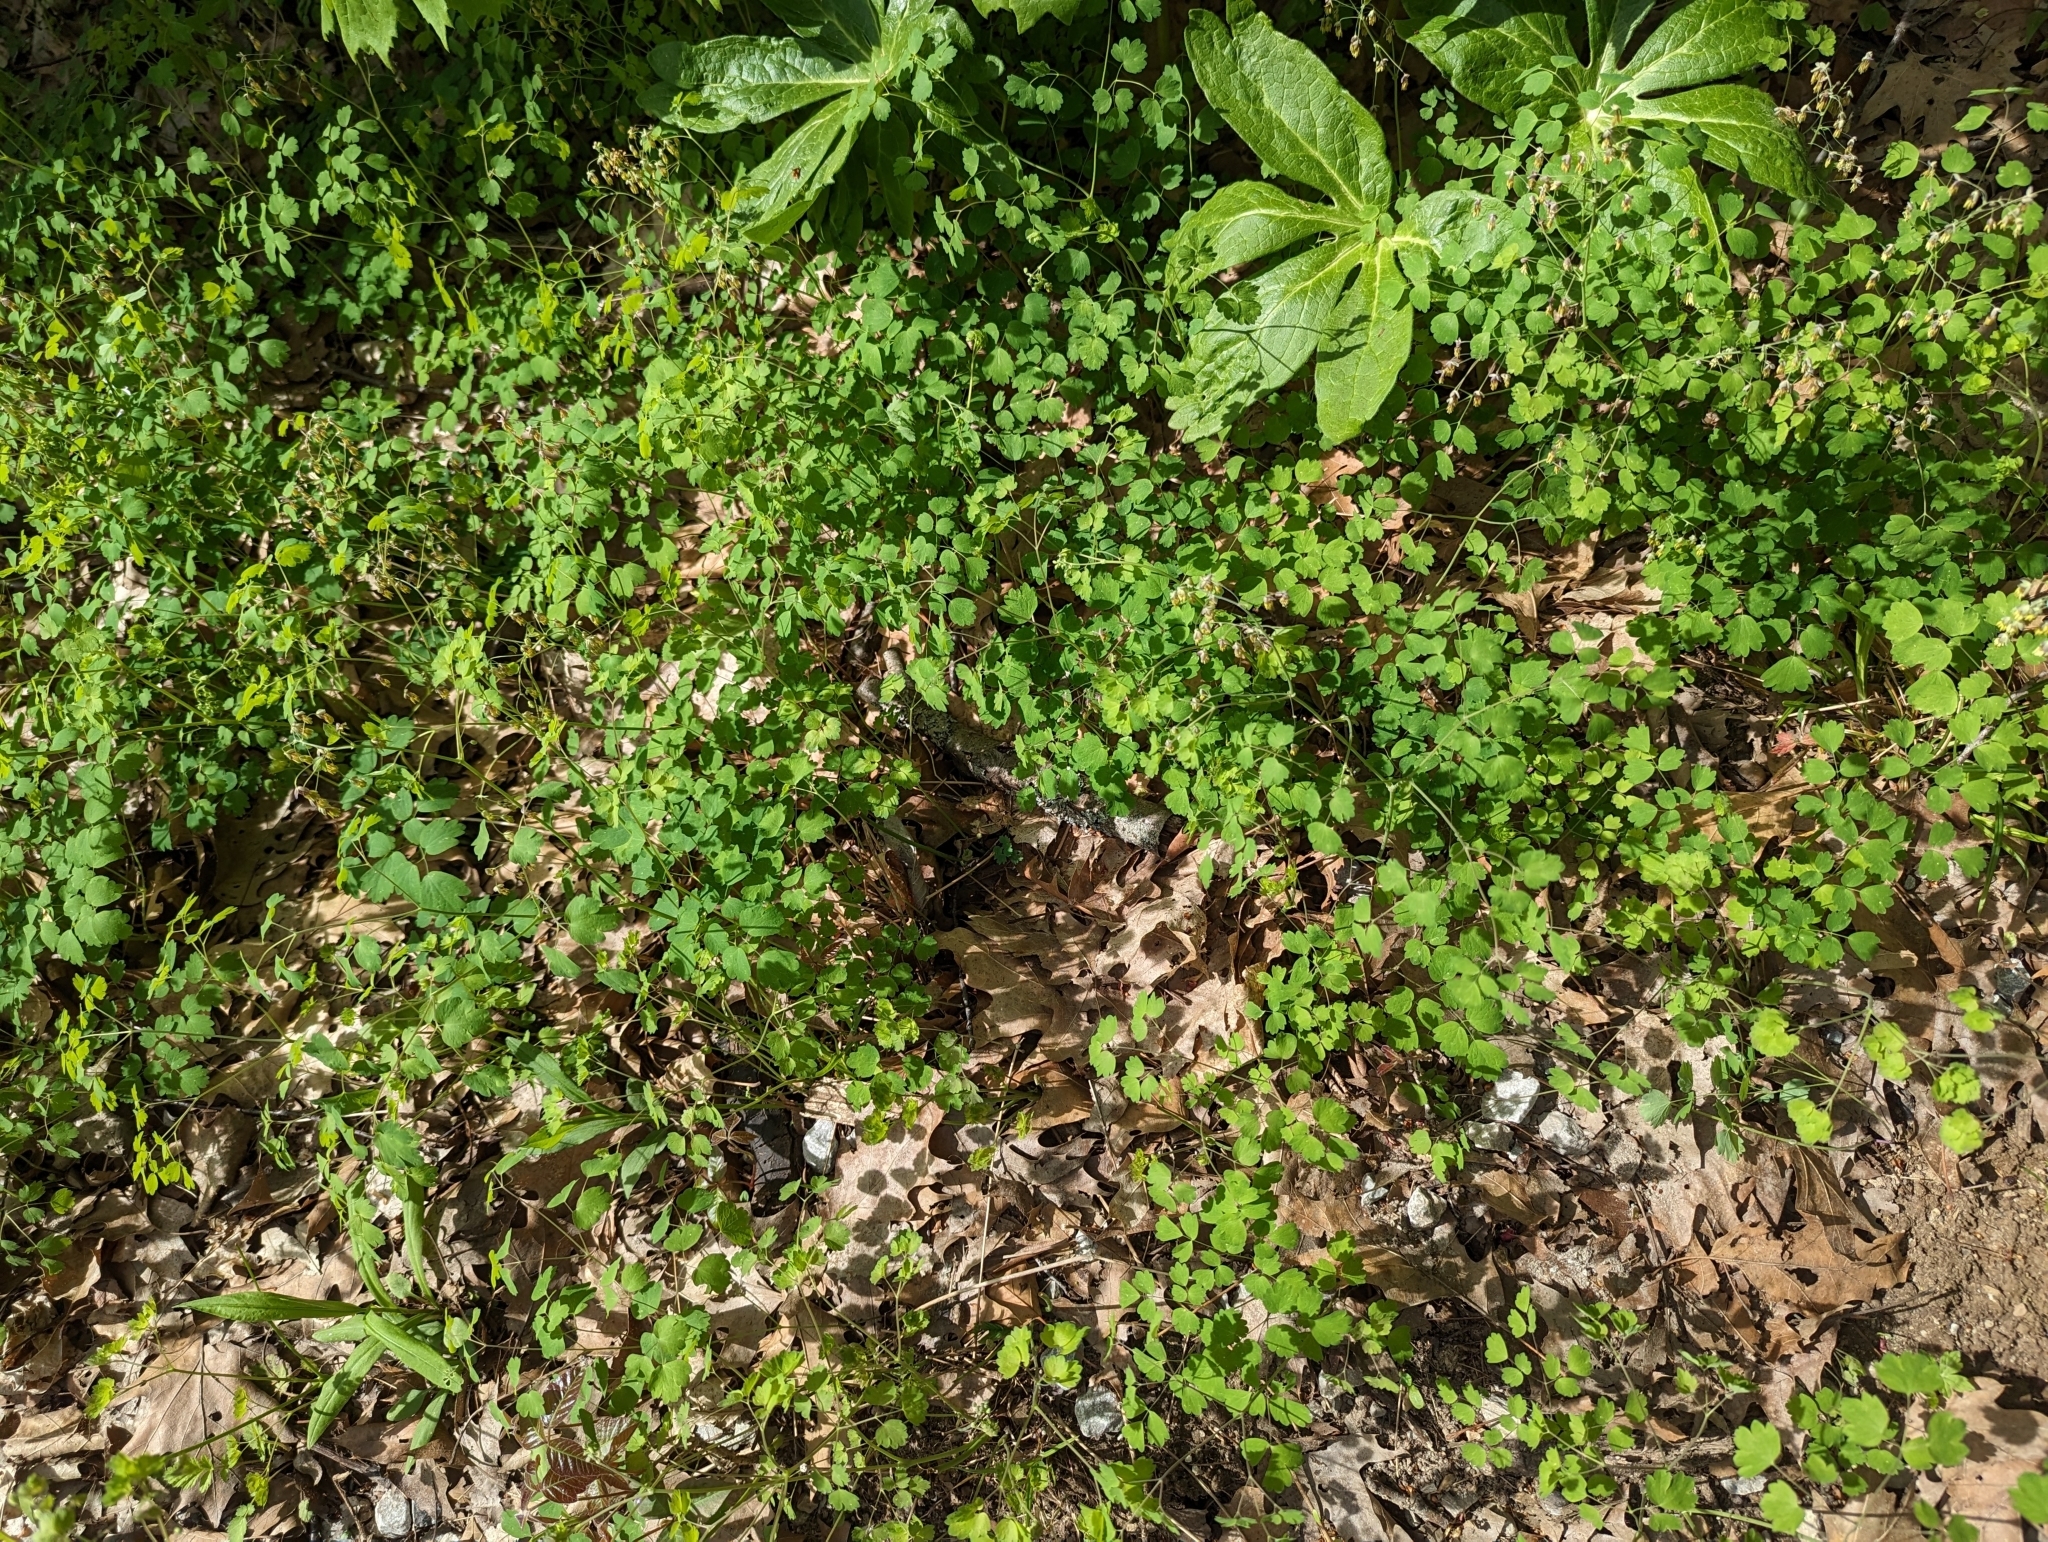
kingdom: Plantae
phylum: Tracheophyta
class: Magnoliopsida
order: Ranunculales
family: Ranunculaceae
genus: Thalictrum
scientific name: Thalictrum dioicum
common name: Early meadow-rue
